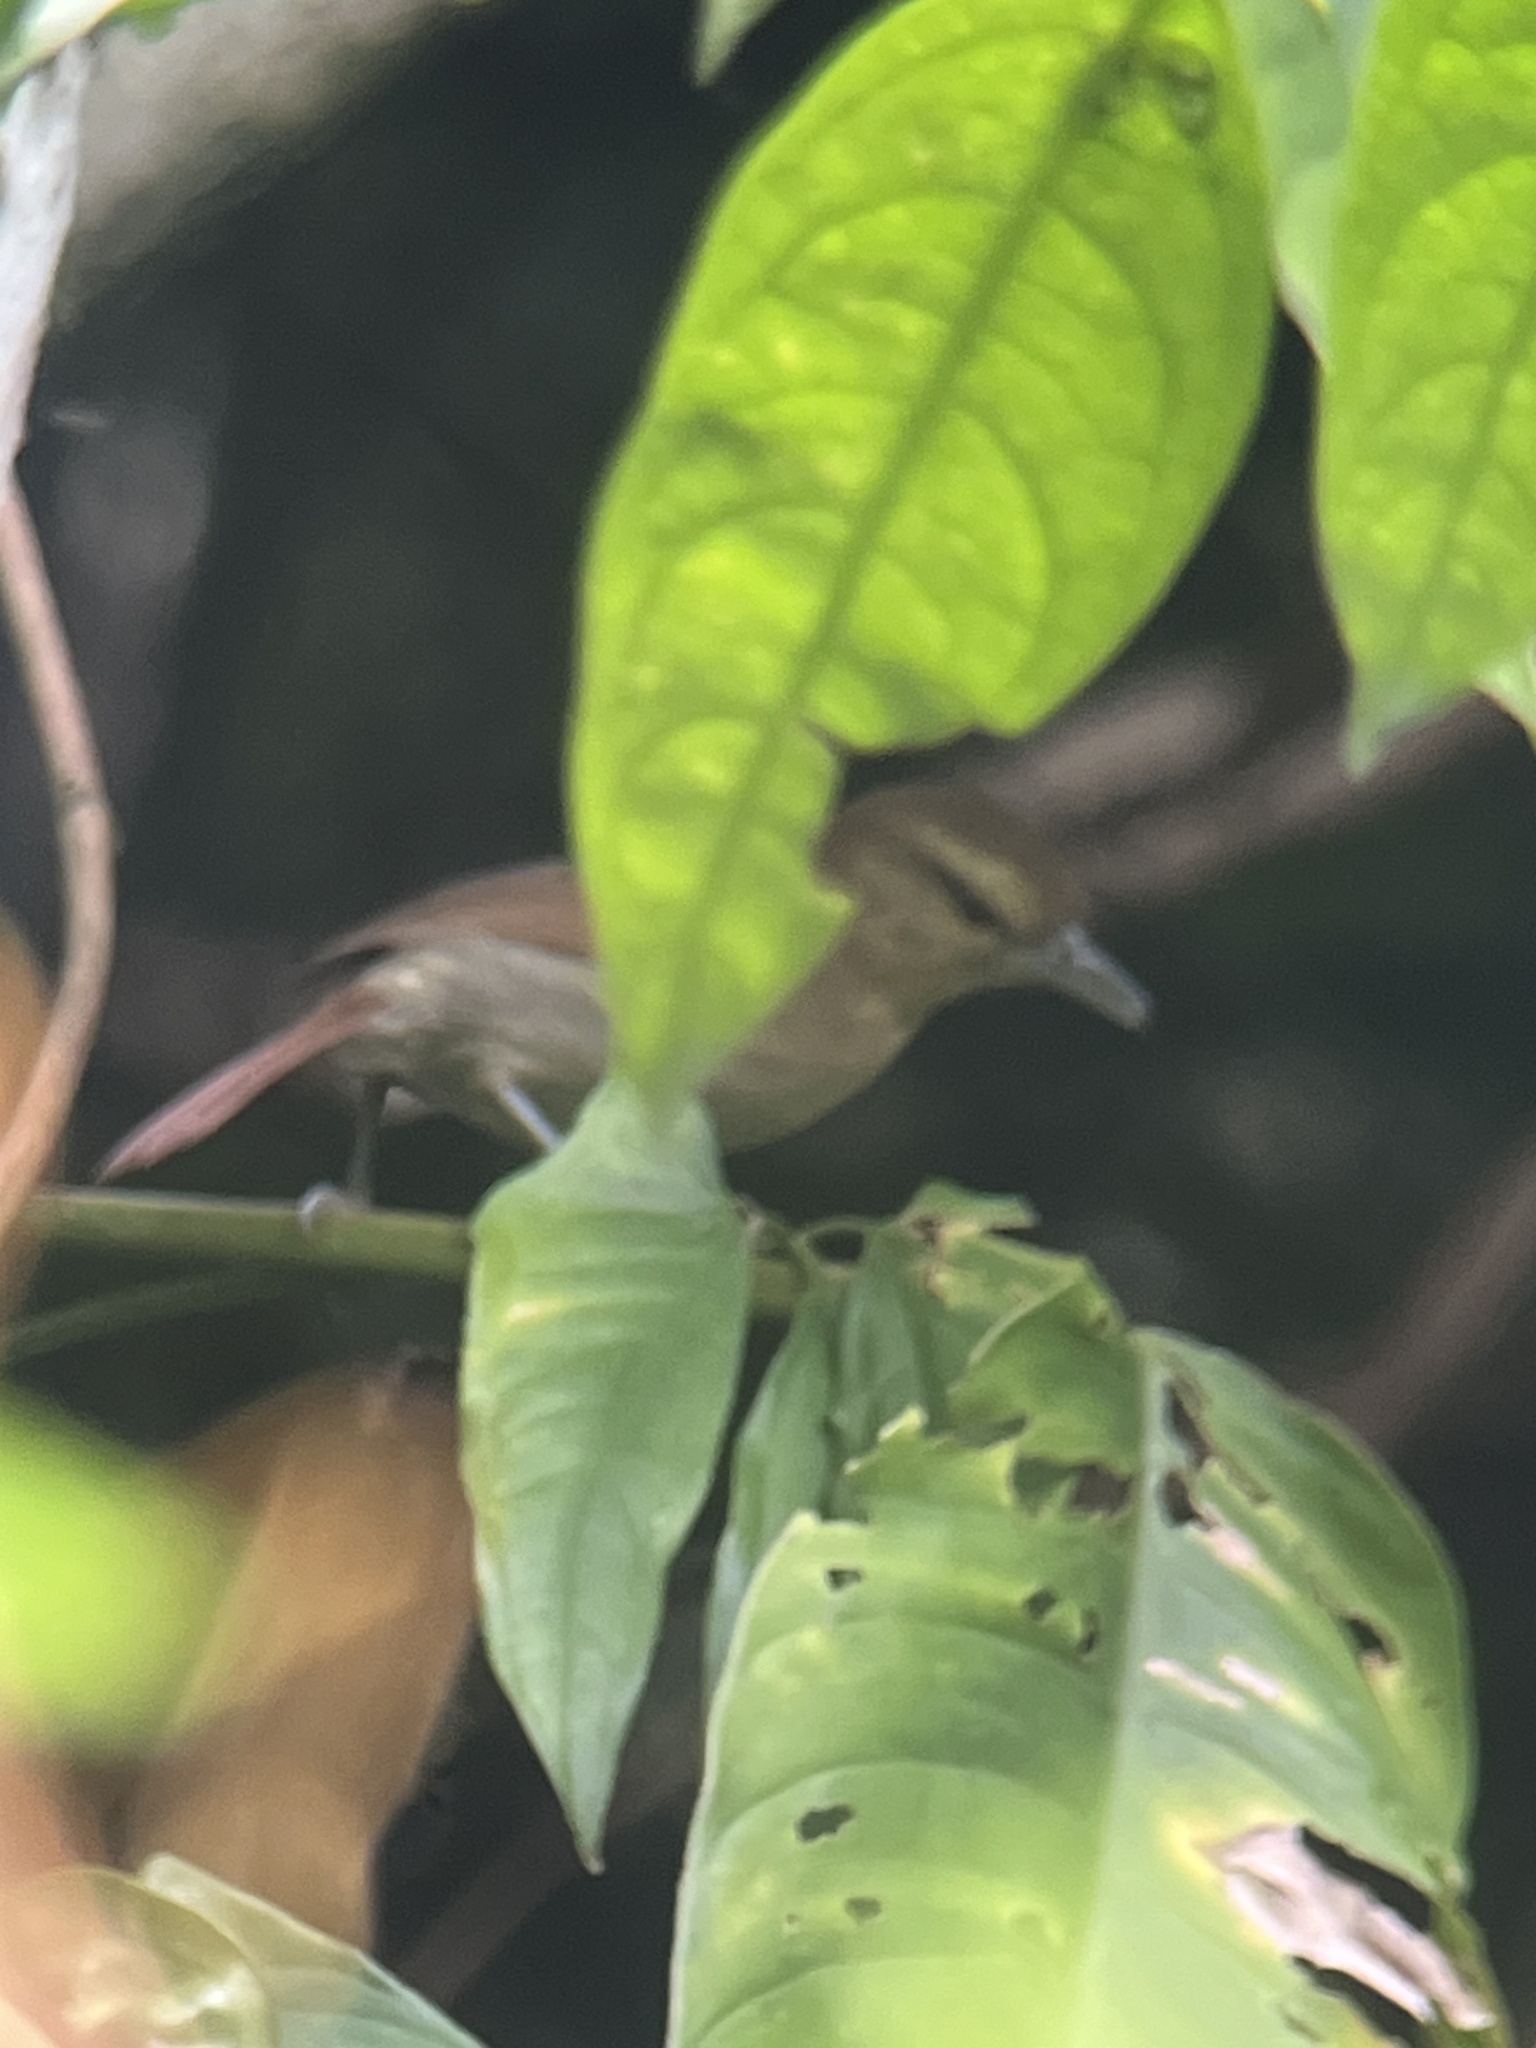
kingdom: Animalia
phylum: Chordata
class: Aves
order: Passeriformes
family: Thamnophilidae
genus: Thamnistes
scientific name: Thamnistes anabatinus
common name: Russet antshrike
